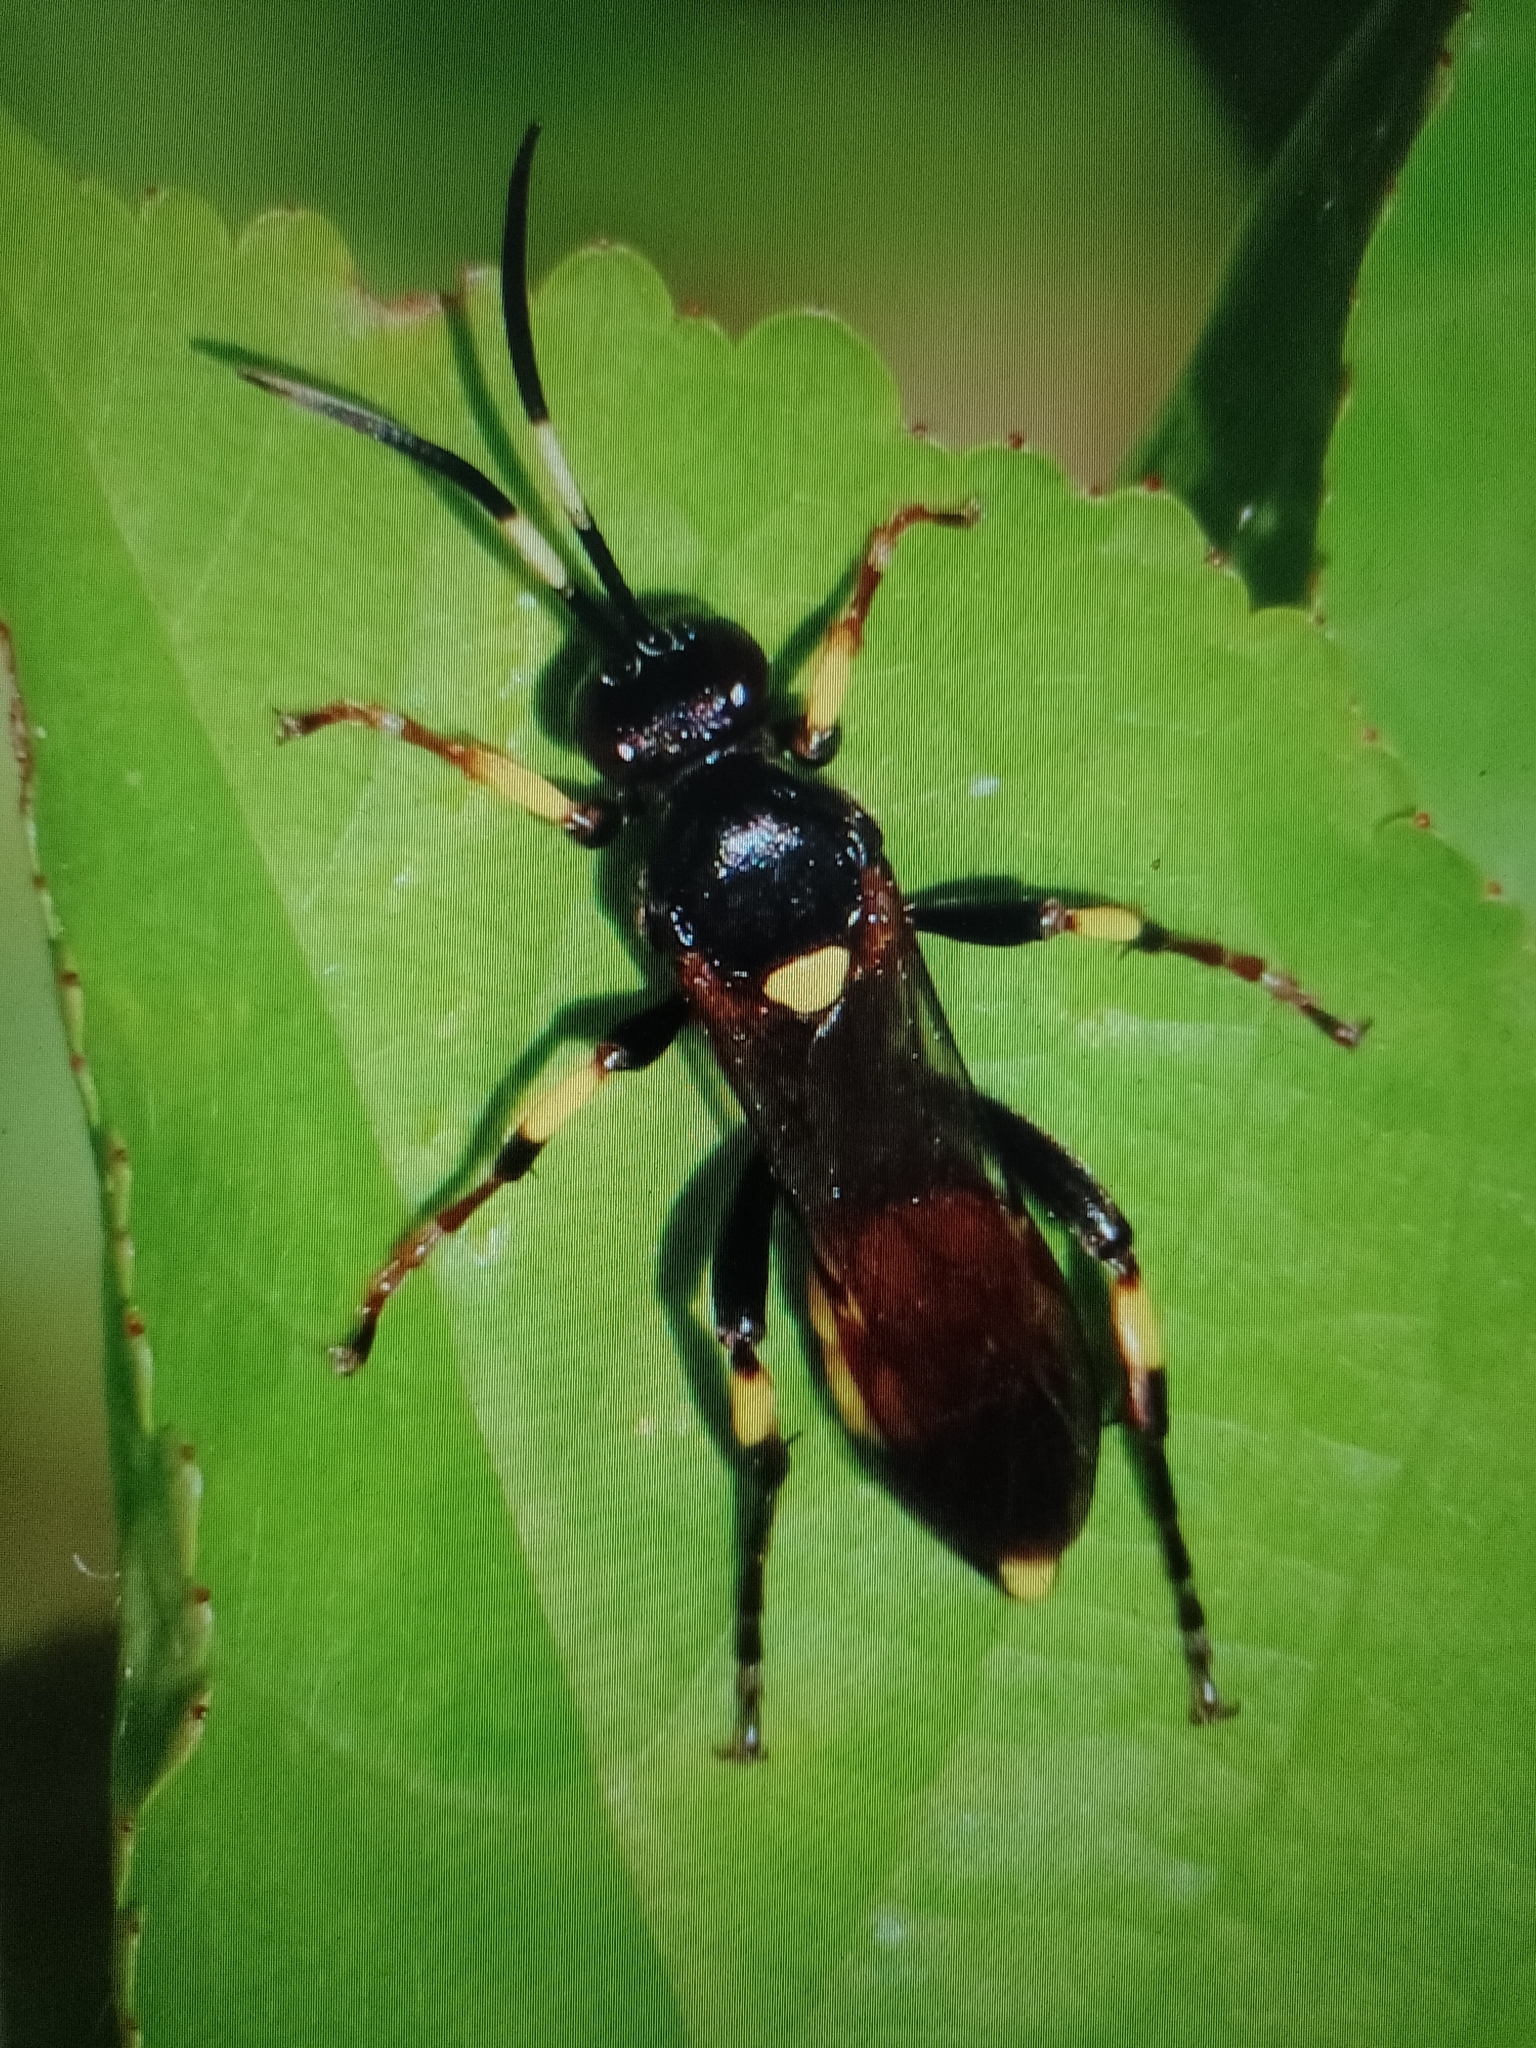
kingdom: Animalia
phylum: Arthropoda
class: Insecta
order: Hymenoptera
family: Ichneumonidae
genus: Ichneumon
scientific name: Ichneumon stramentor
